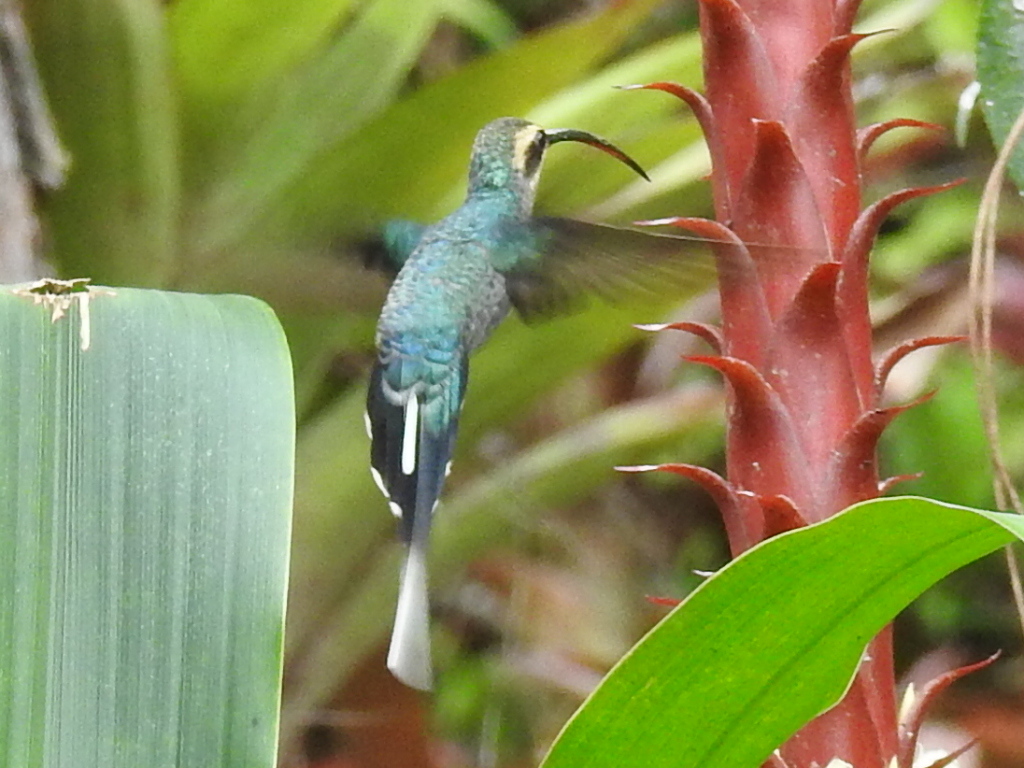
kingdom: Animalia
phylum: Chordata
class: Aves
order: Apodiformes
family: Trochilidae
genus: Phaethornis
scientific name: Phaethornis guy
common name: Green hermit
